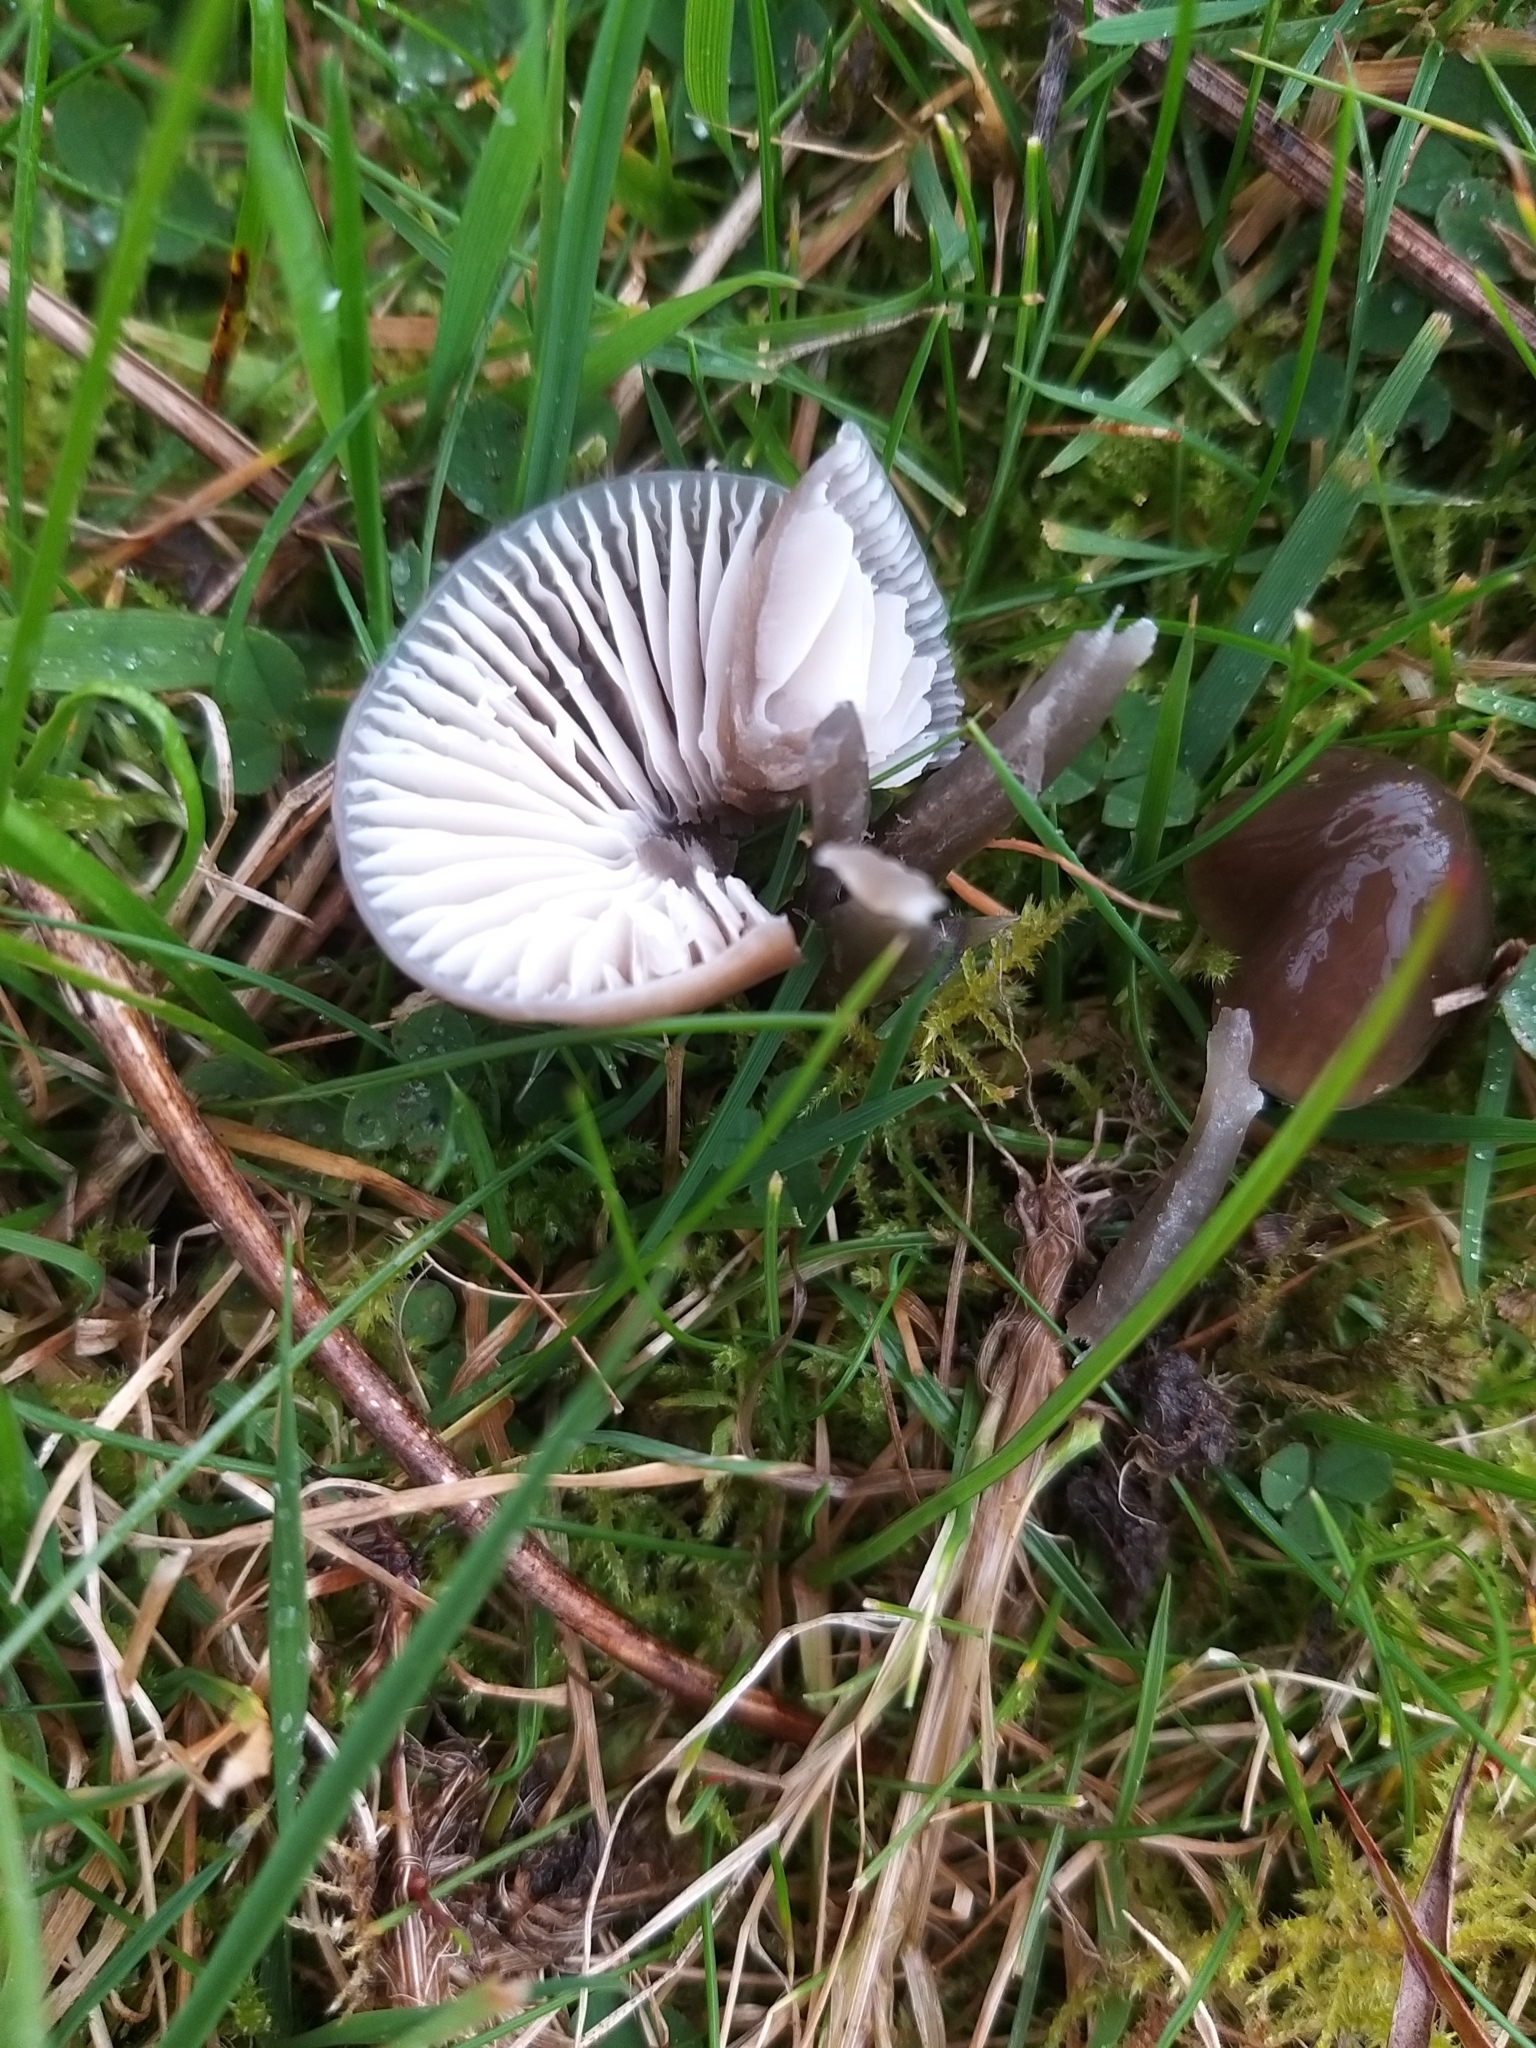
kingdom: Fungi
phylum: Basidiomycota
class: Agaricomycetes
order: Agaricales
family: Hygrophoraceae
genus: Gliophorus
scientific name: Gliophorus irrigatus
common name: Slimy waxcap
